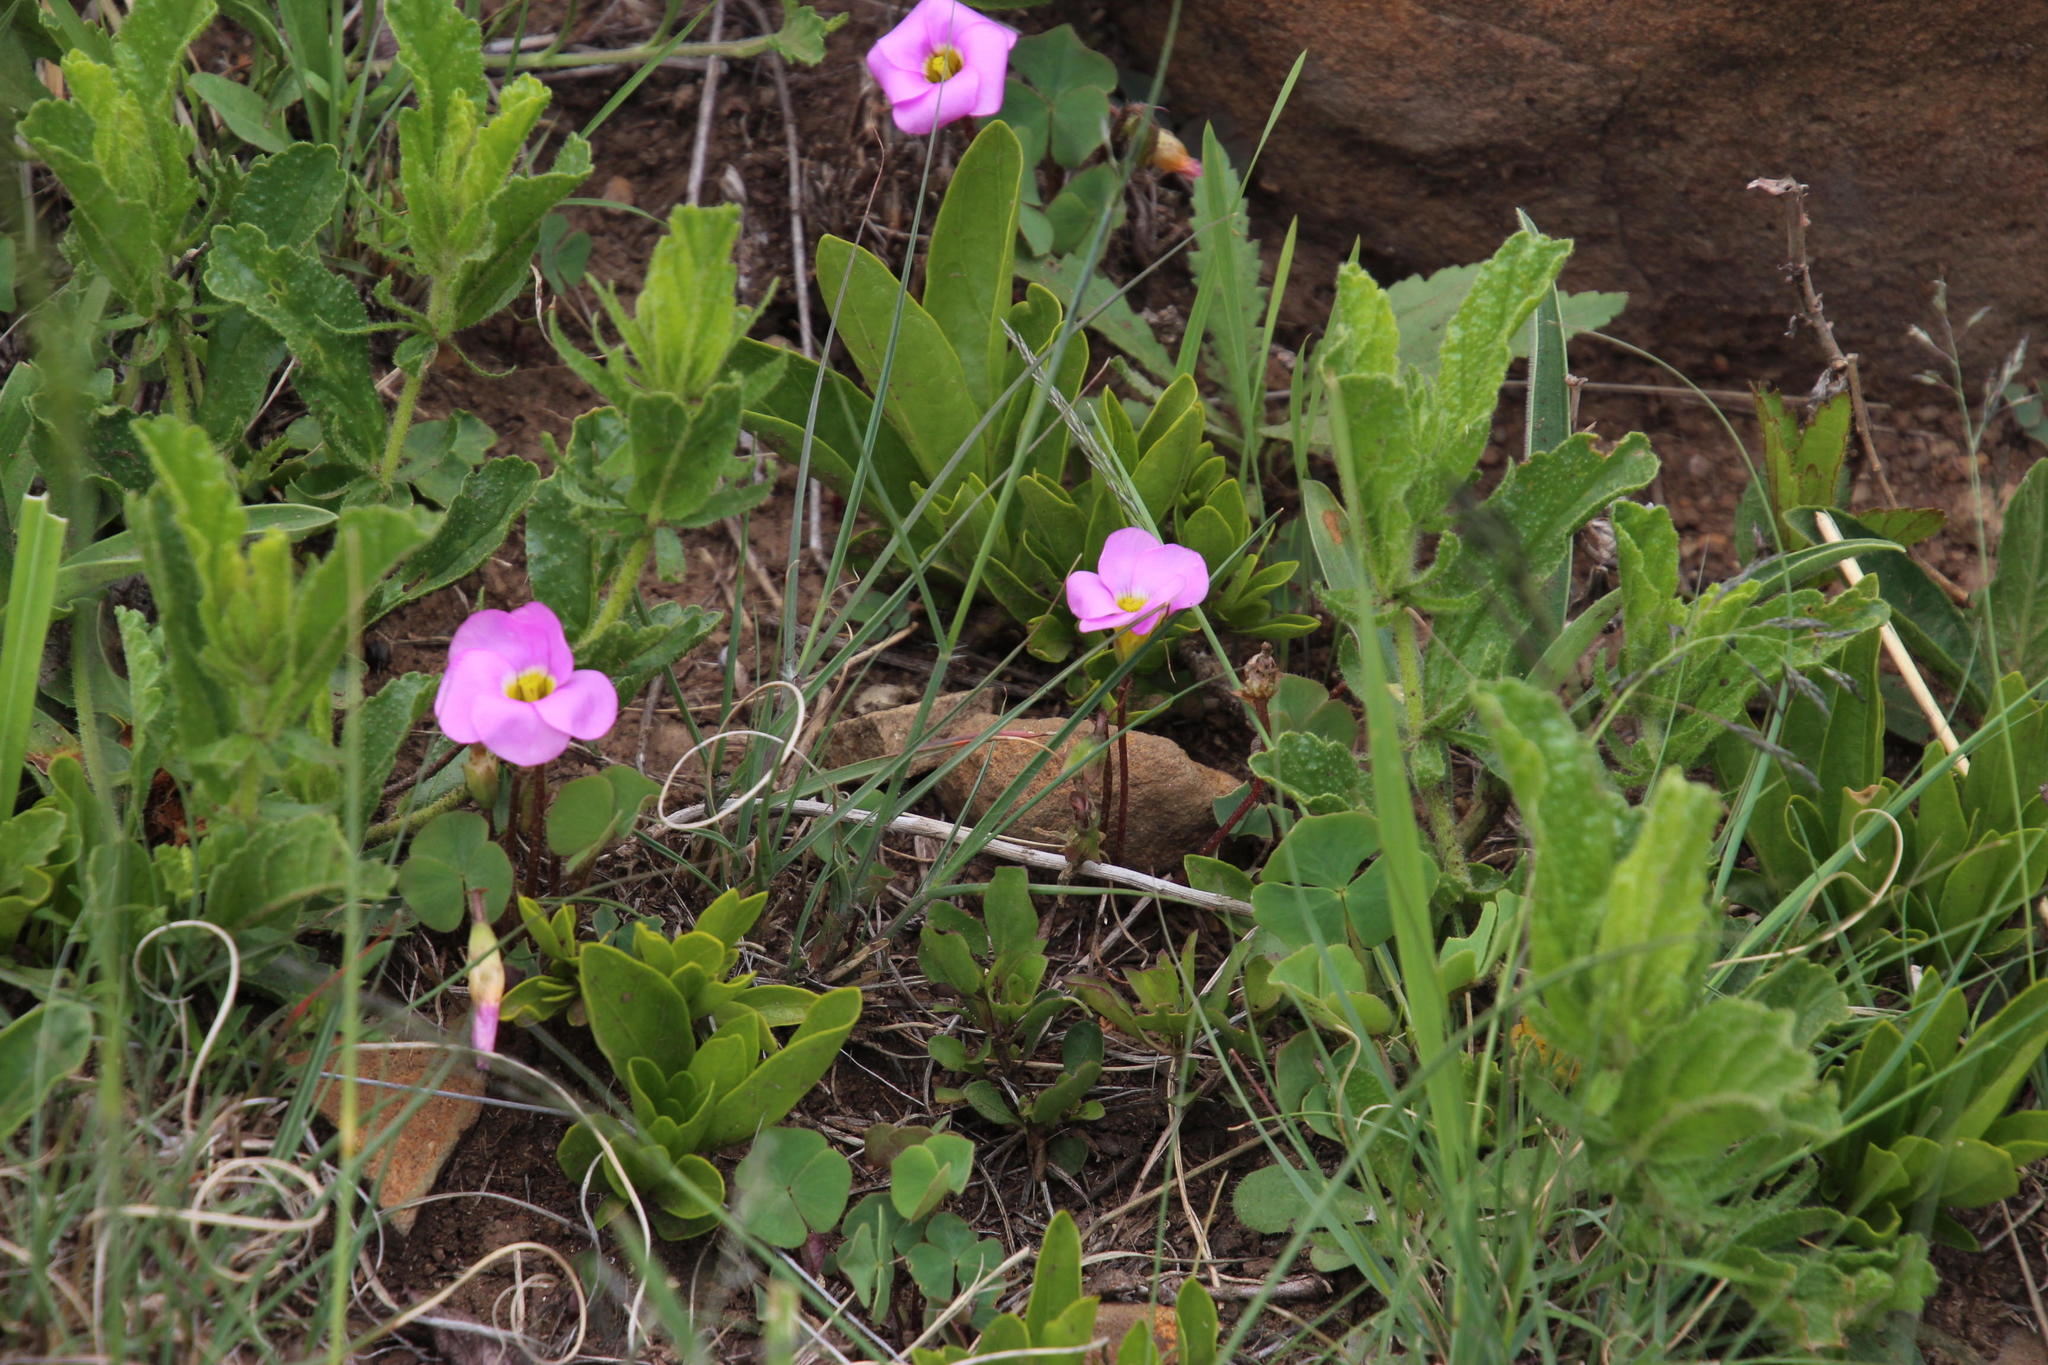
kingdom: Plantae
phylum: Tracheophyta
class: Magnoliopsida
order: Oxalidales
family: Oxalidaceae
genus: Oxalis
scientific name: Oxalis obliquifolia
